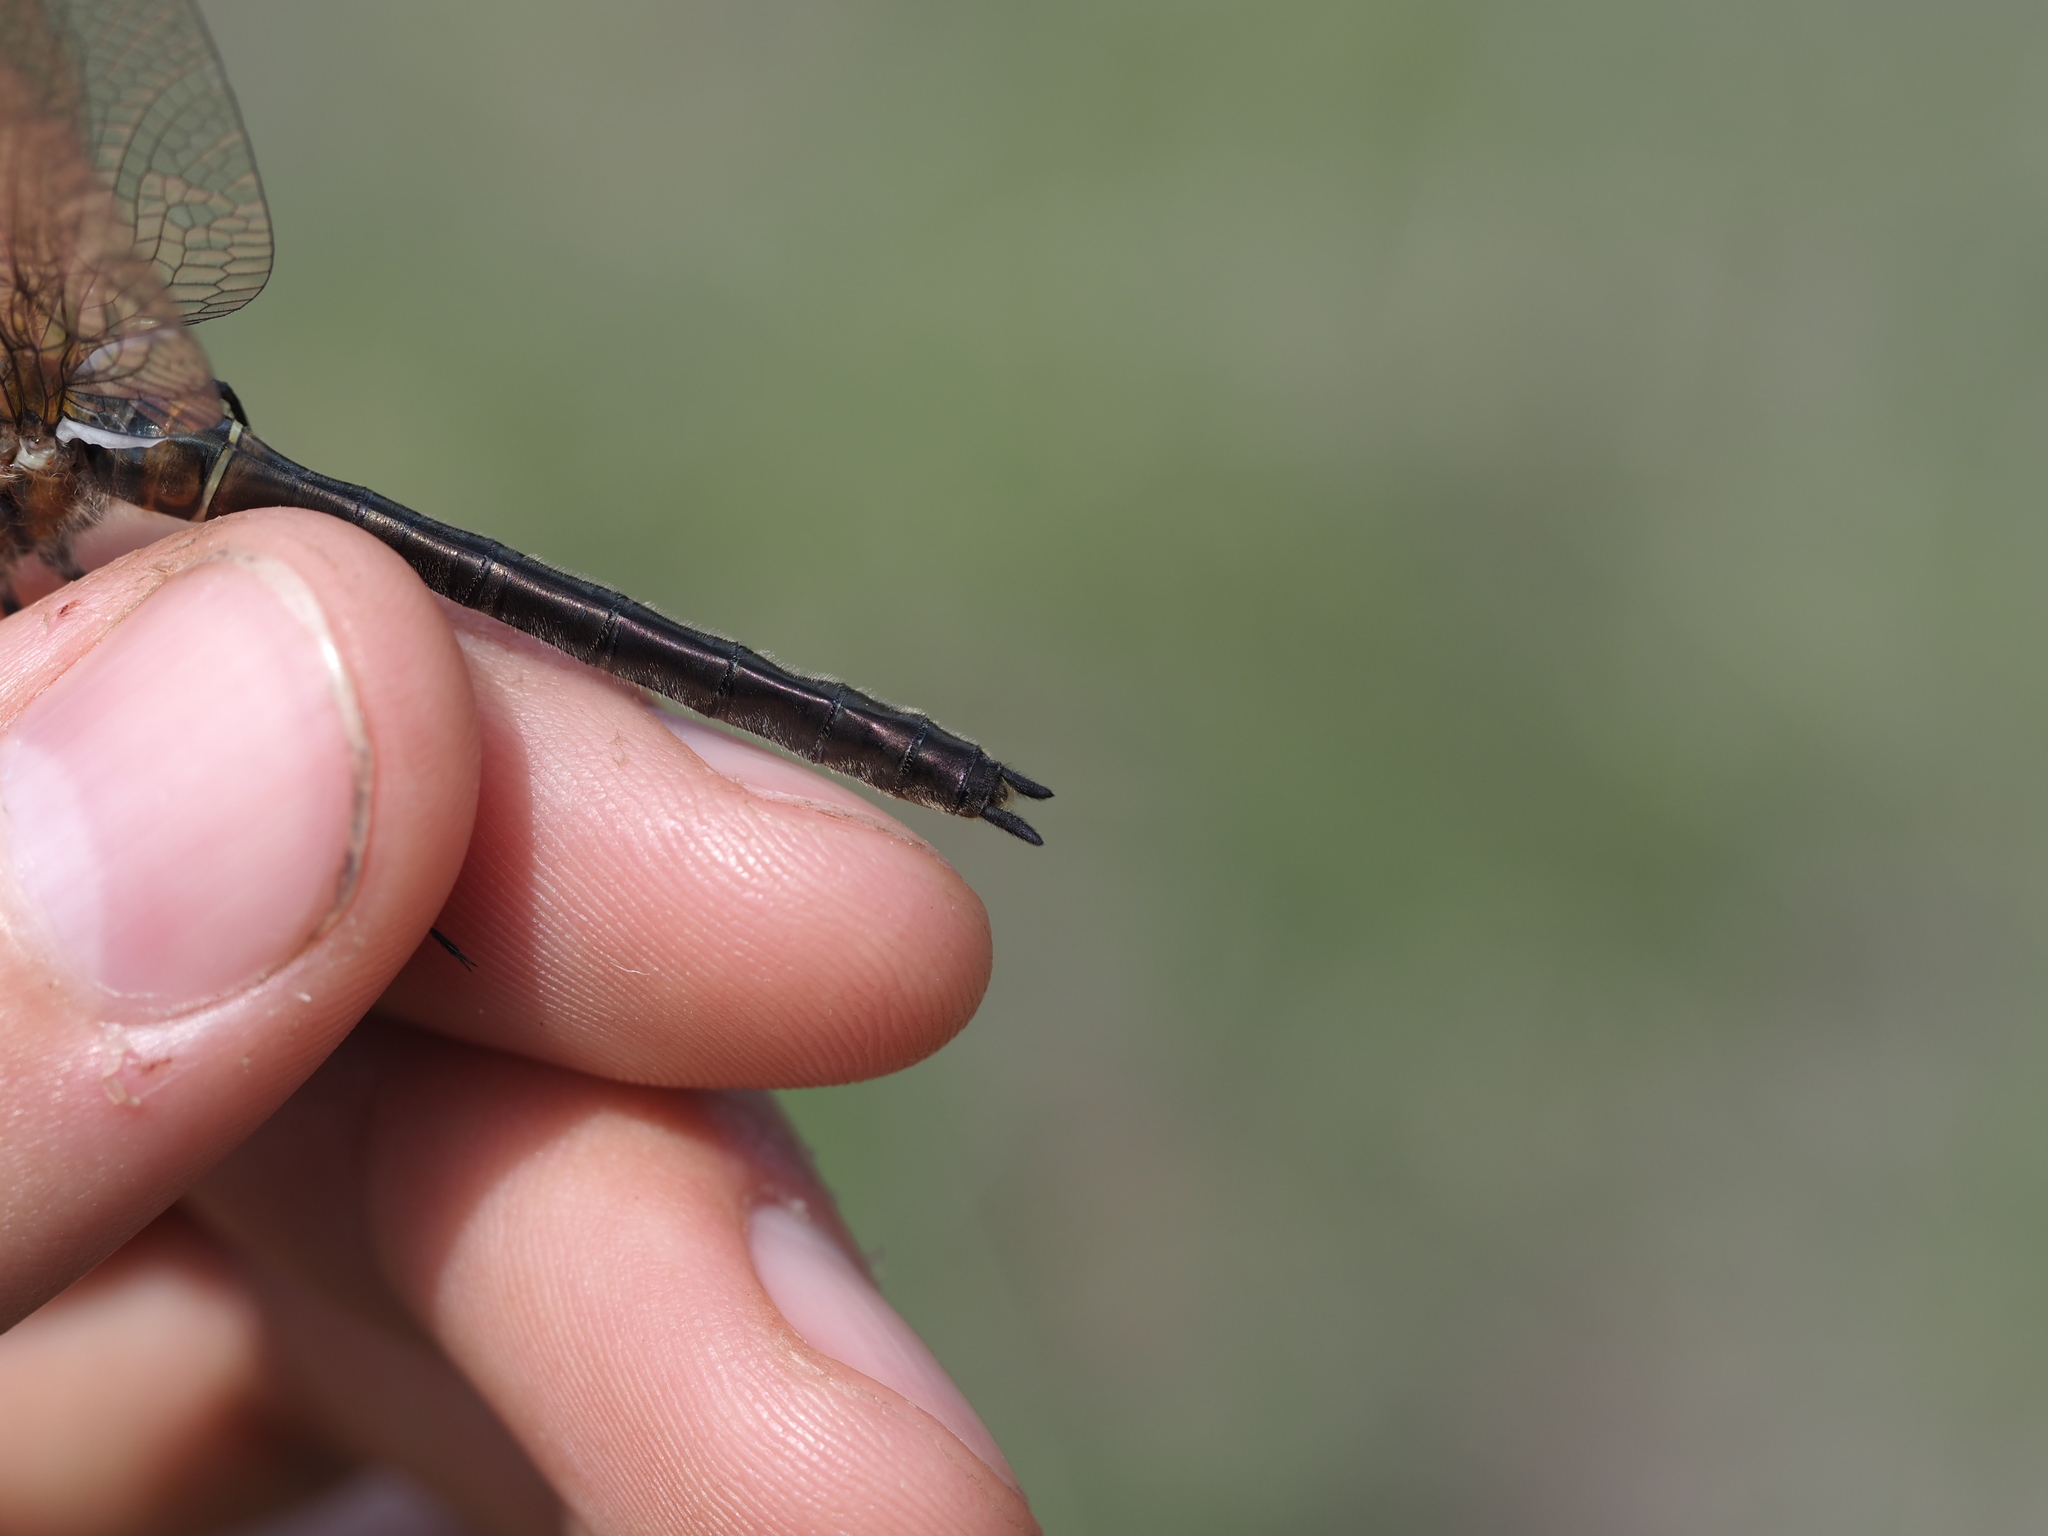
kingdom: Animalia
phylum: Arthropoda
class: Insecta
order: Odonata
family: Corduliidae
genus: Cordulia
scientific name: Cordulia shurtleffii
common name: American emerald
